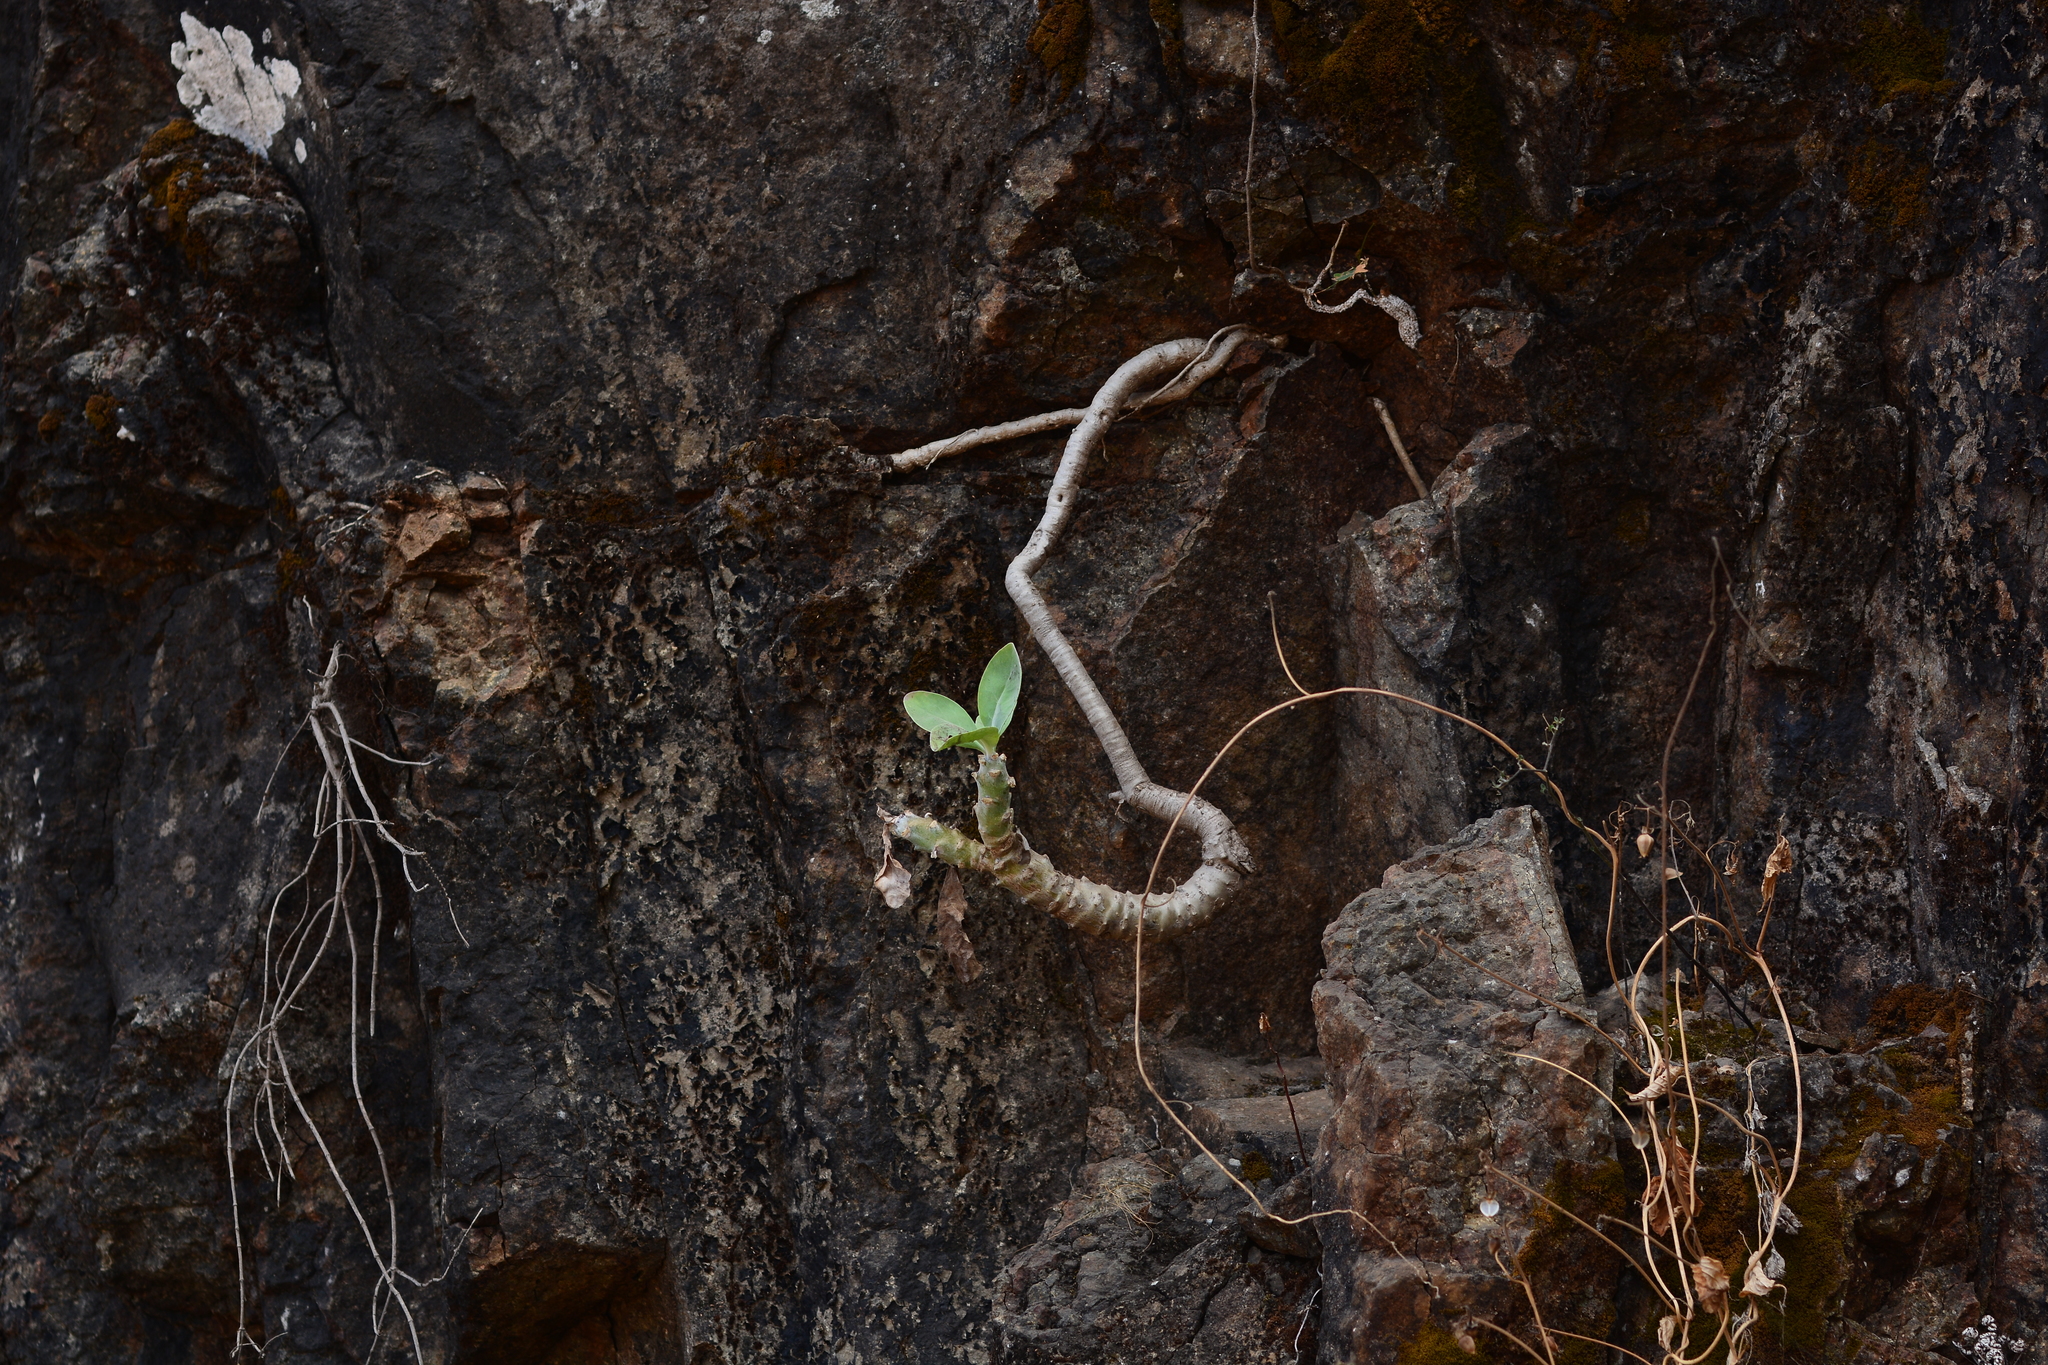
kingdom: Plantae
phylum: Tracheophyta
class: Magnoliopsida
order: Asterales
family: Asteraceae
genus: Kleinia
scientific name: Kleinia grandiflora
